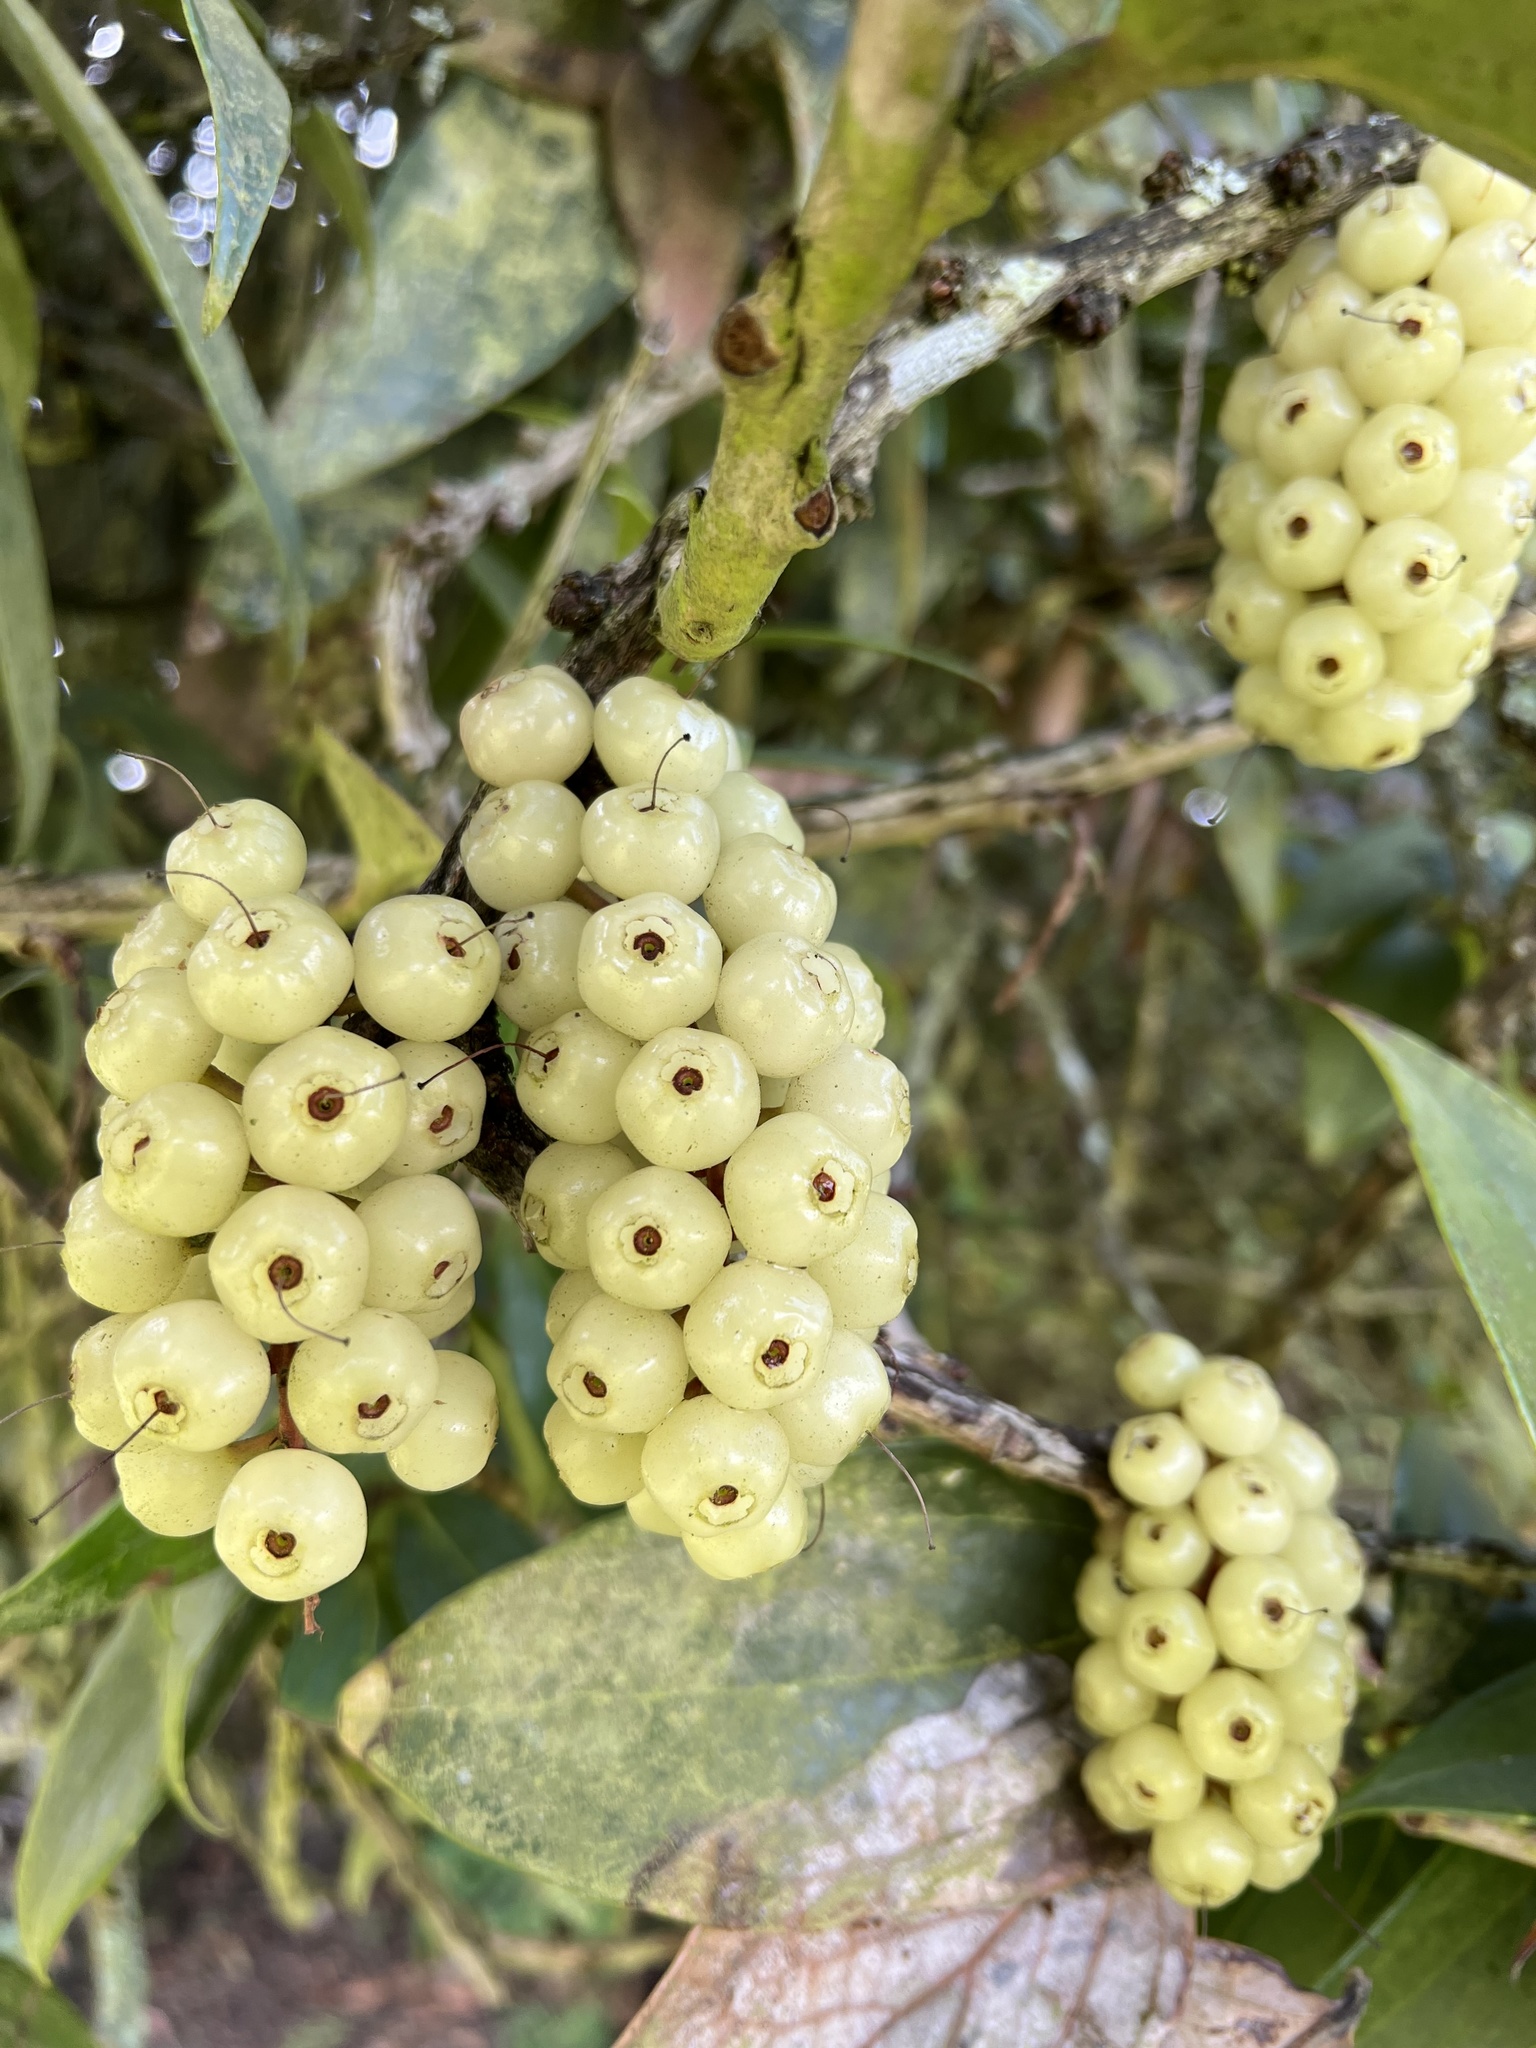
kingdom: Plantae
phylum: Tracheophyta
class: Magnoliopsida
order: Ericales
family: Ericaceae
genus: Thibaudia
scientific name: Thibaudia floribunda
